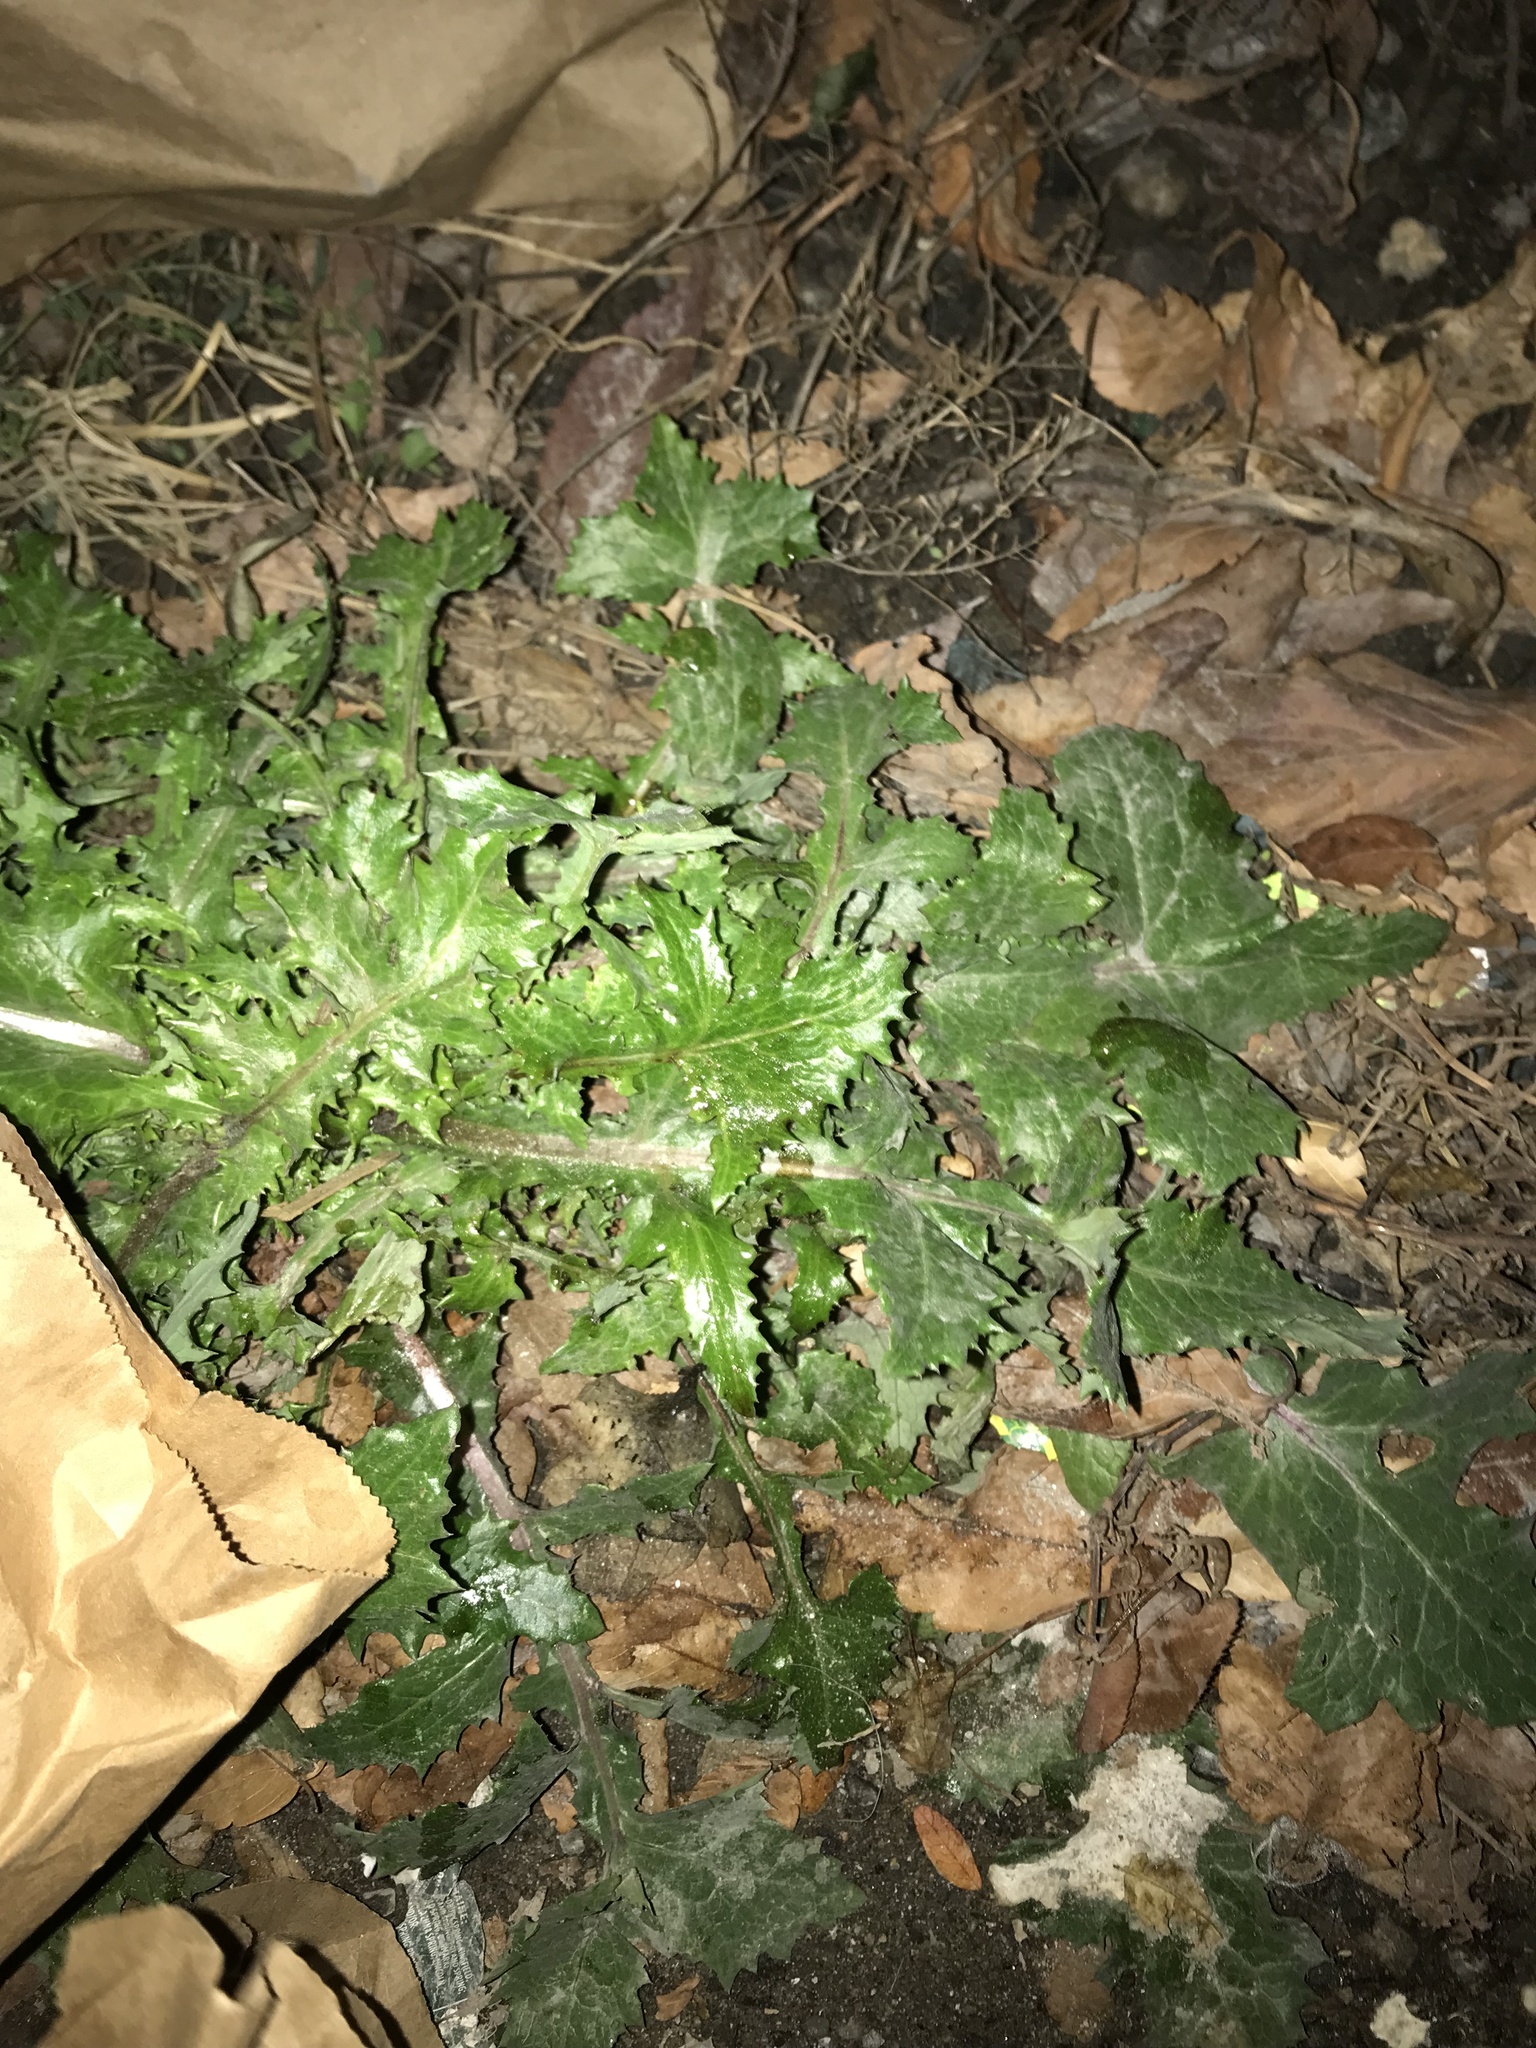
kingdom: Plantae
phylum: Tracheophyta
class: Magnoliopsida
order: Asterales
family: Asteraceae
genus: Sonchus
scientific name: Sonchus asper
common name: Prickly sow-thistle
